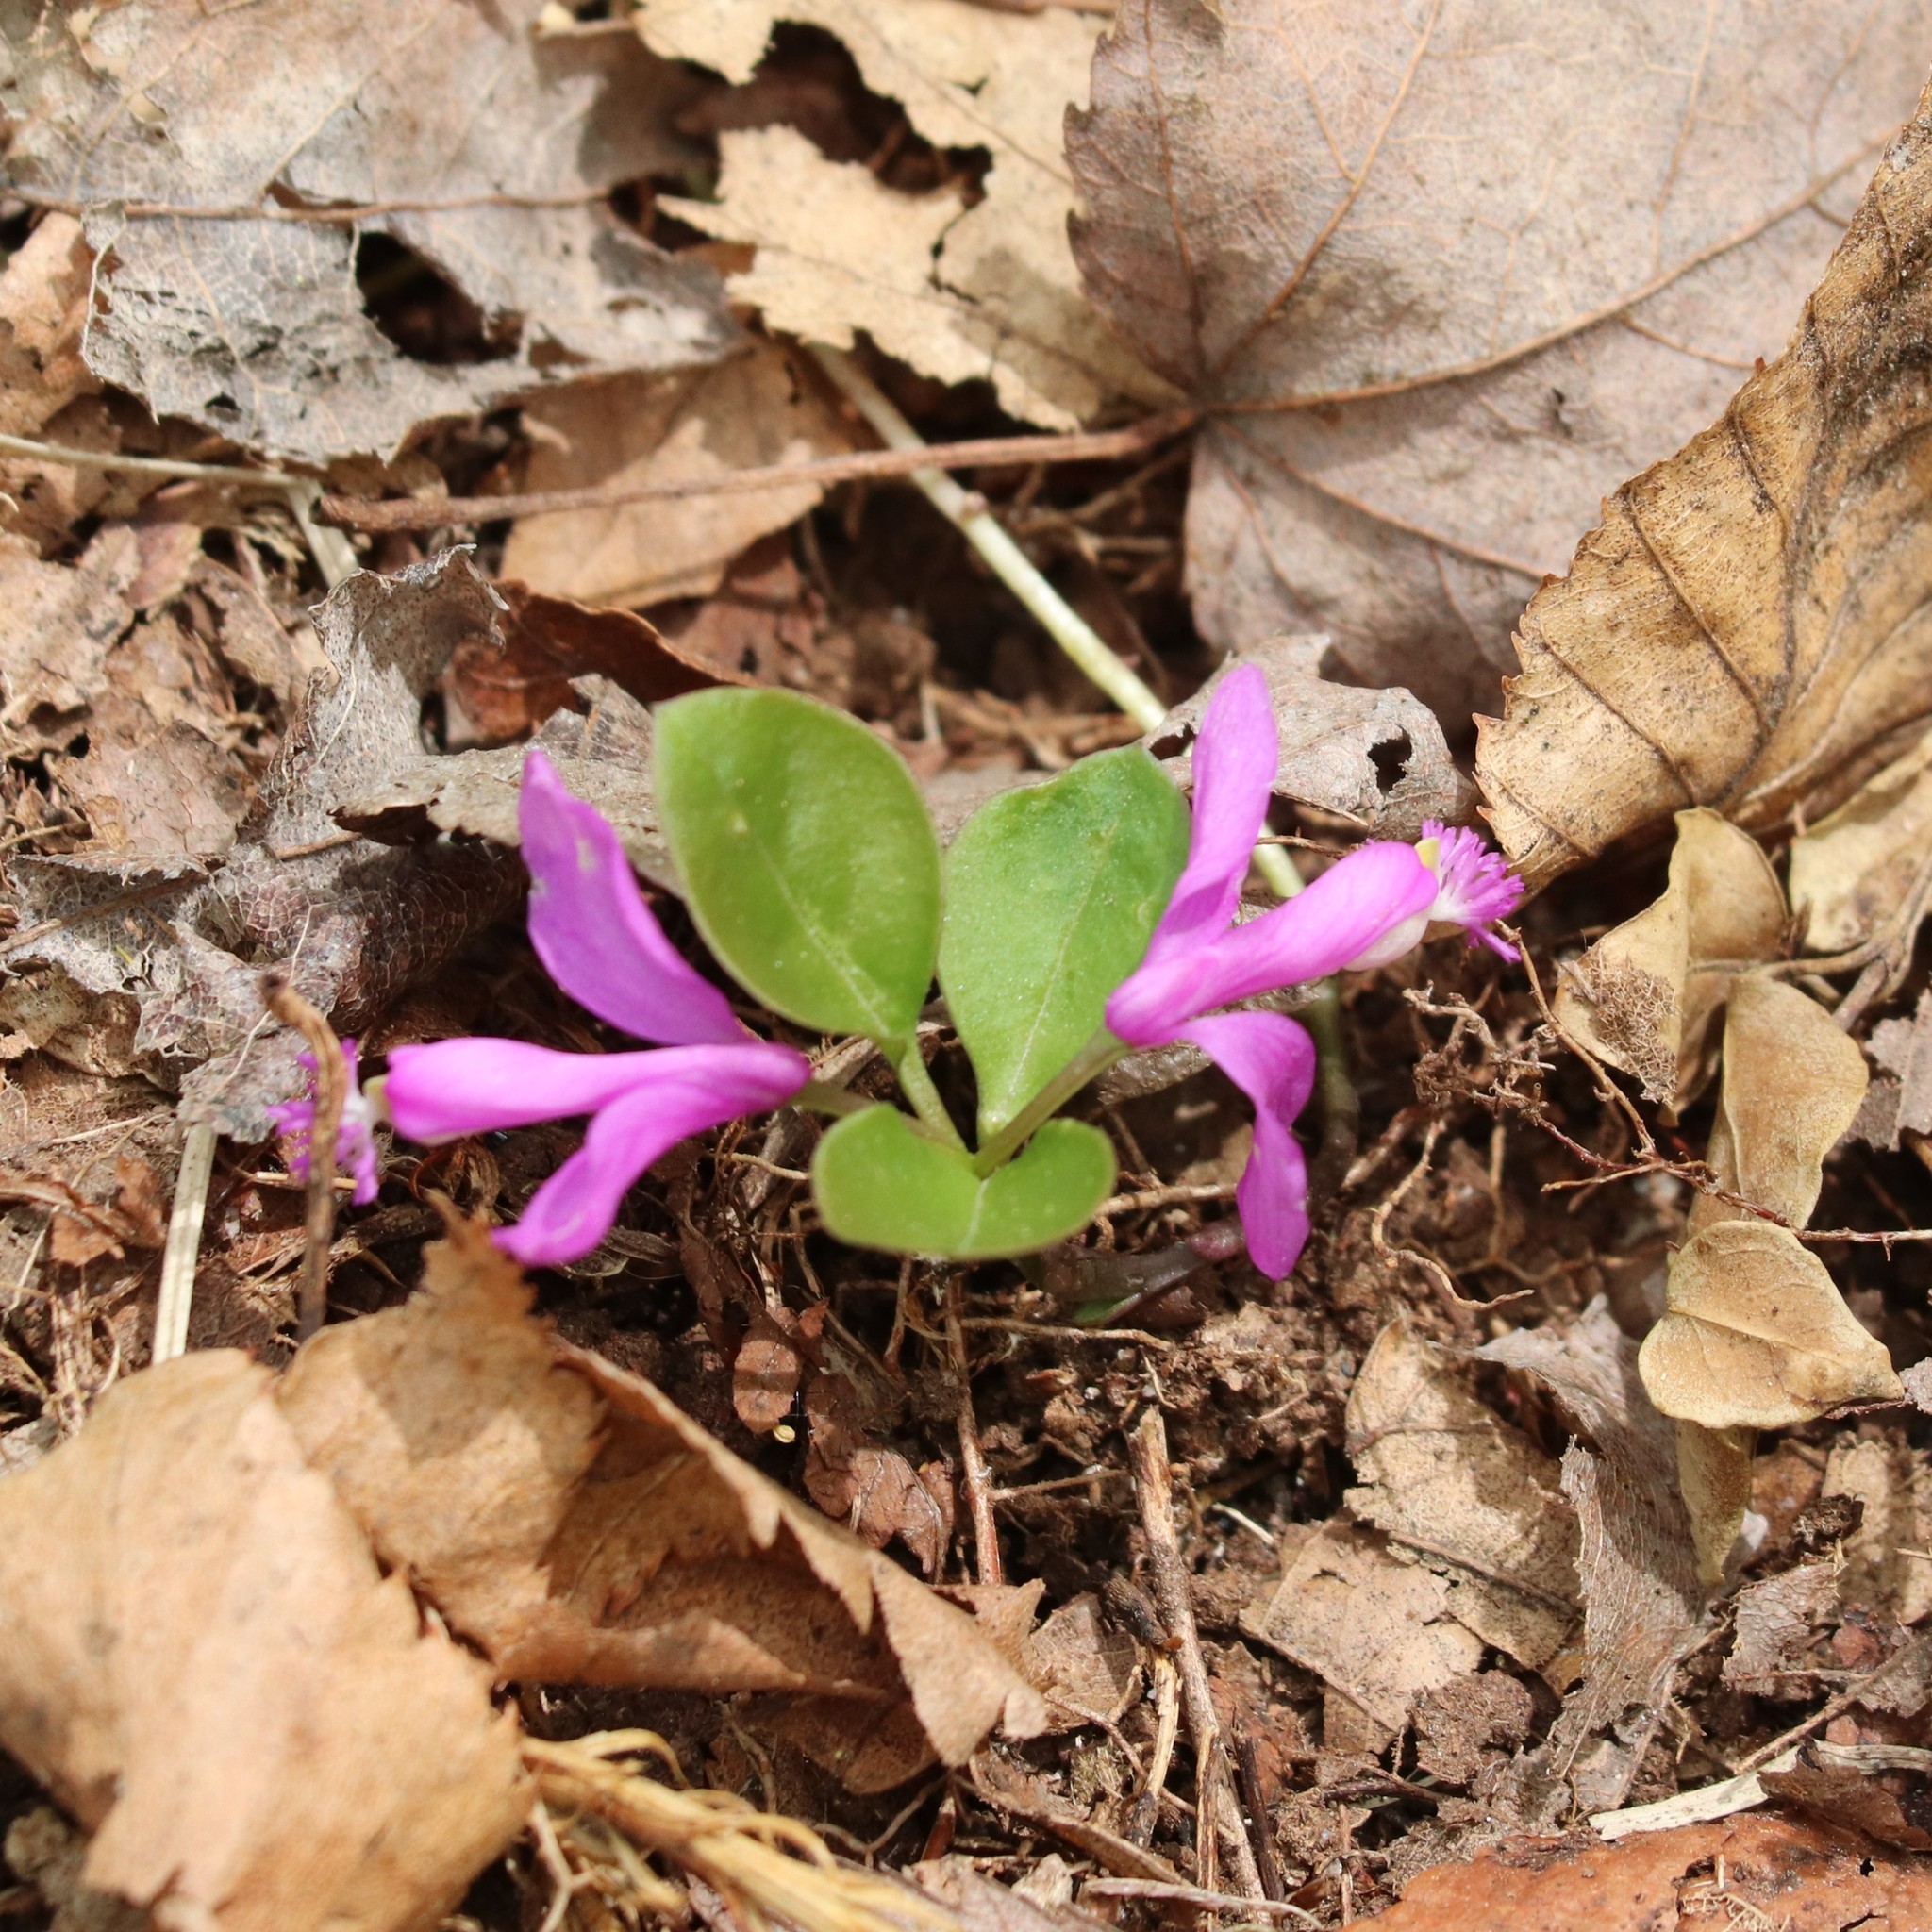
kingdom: Plantae
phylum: Tracheophyta
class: Magnoliopsida
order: Fabales
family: Polygalaceae
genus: Polygaloides
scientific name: Polygaloides paucifolia
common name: Bird-on-the-wing
